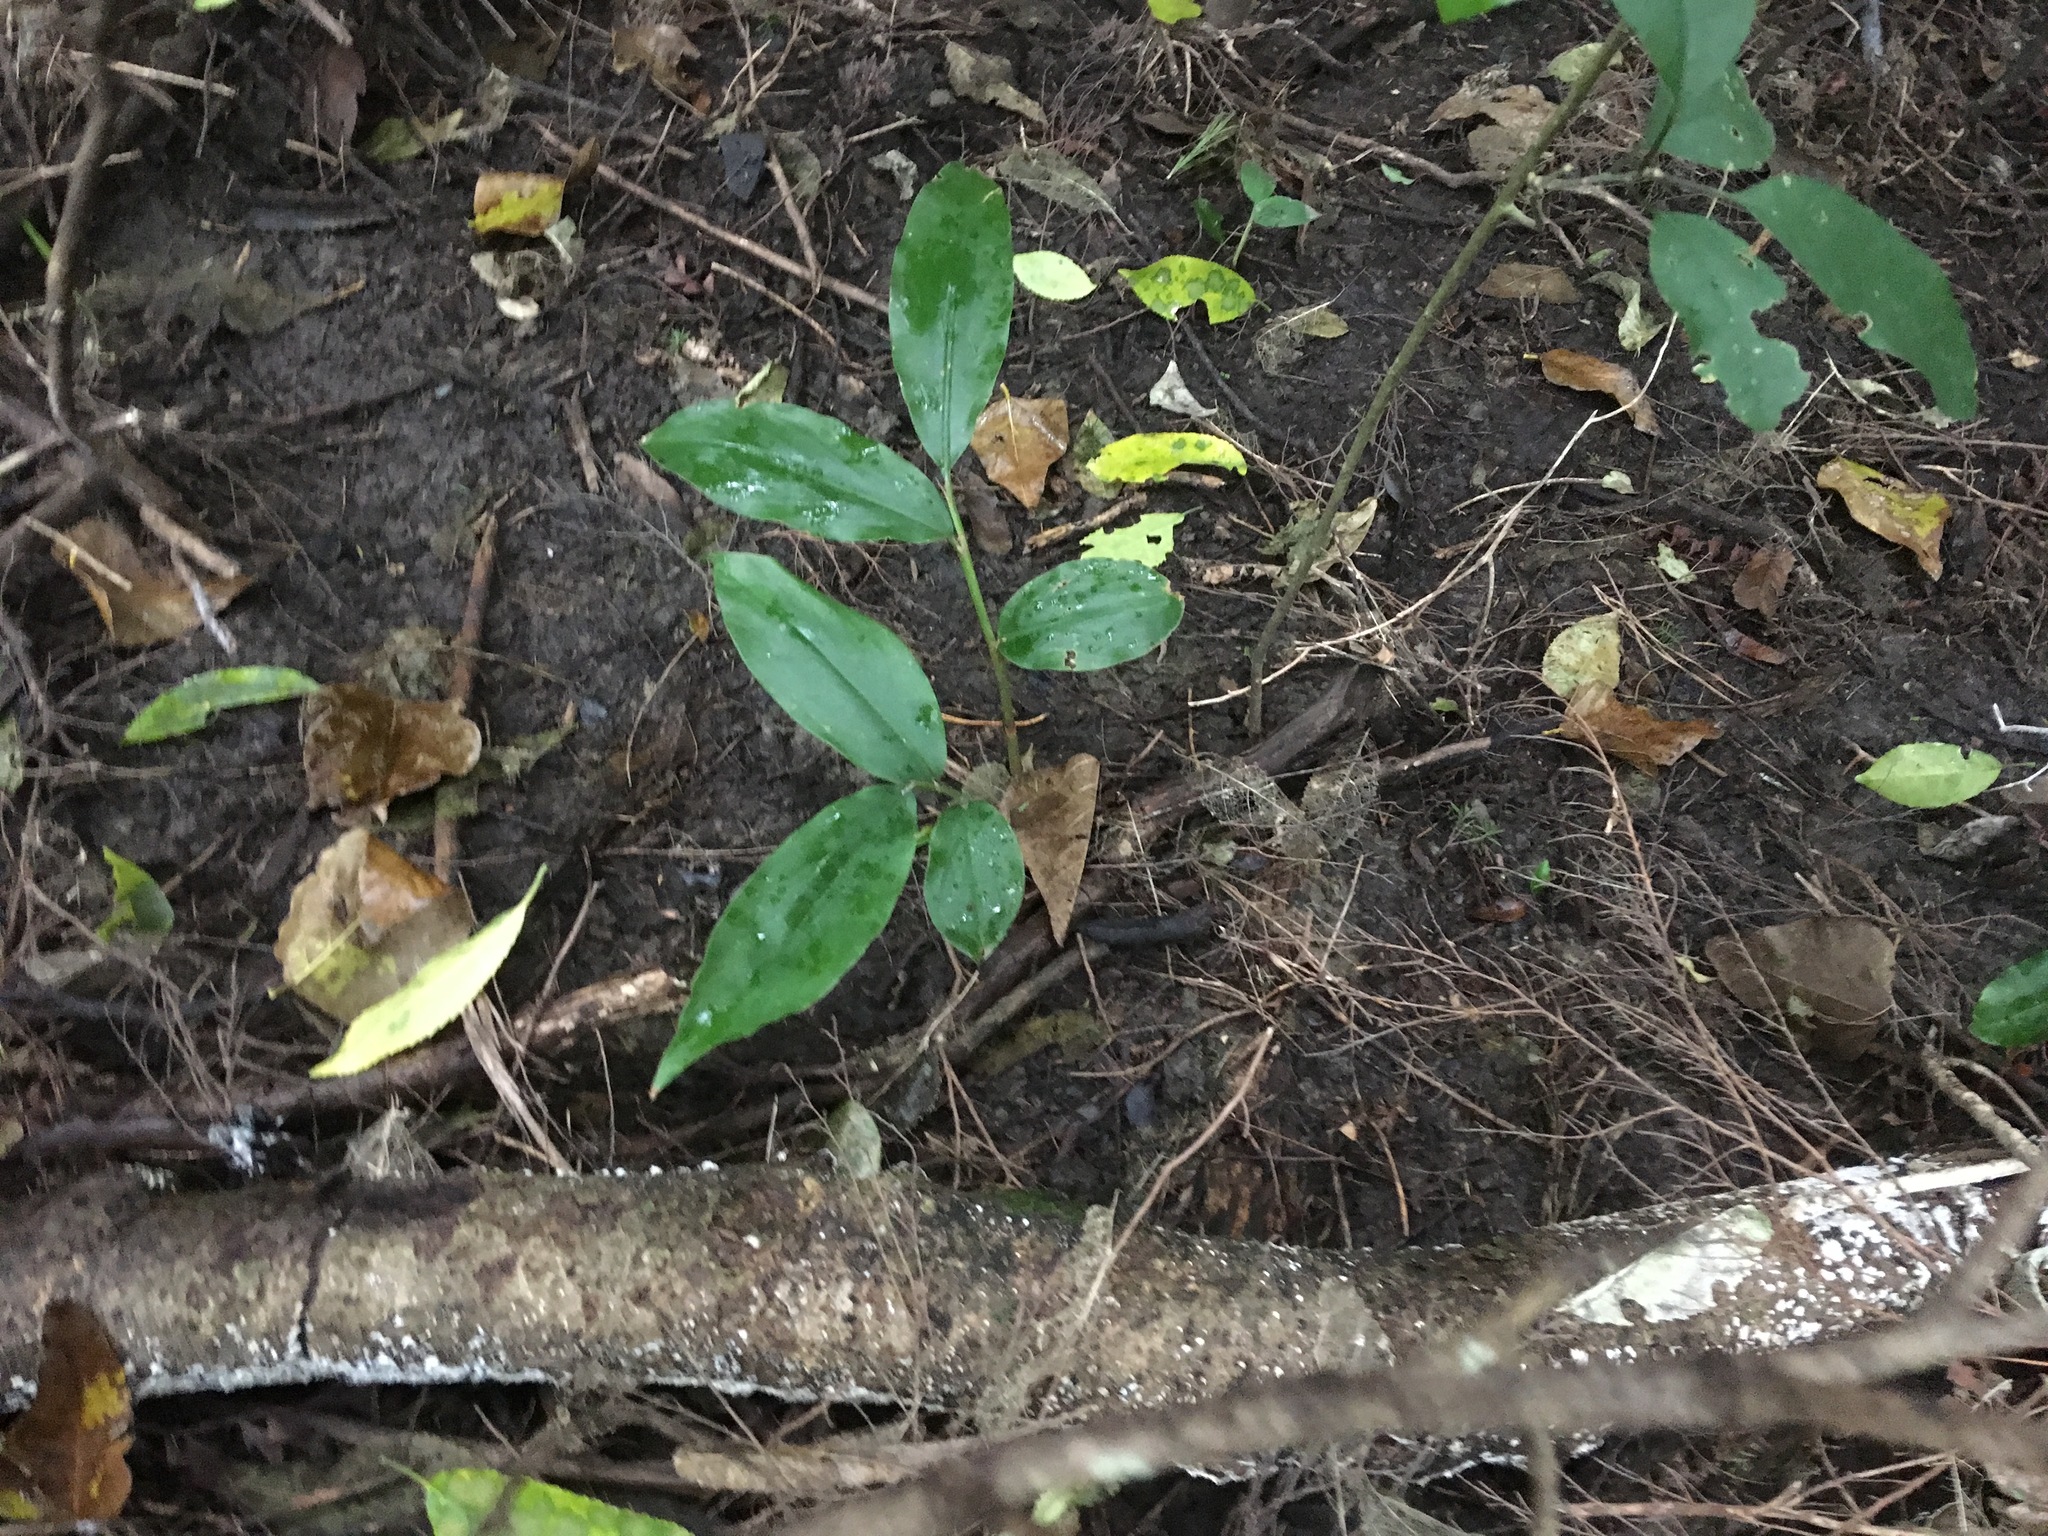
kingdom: Plantae
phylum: Tracheophyta
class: Liliopsida
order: Zingiberales
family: Zingiberaceae
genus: Hedychium
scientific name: Hedychium gardnerianum
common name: Himalayan ginger
